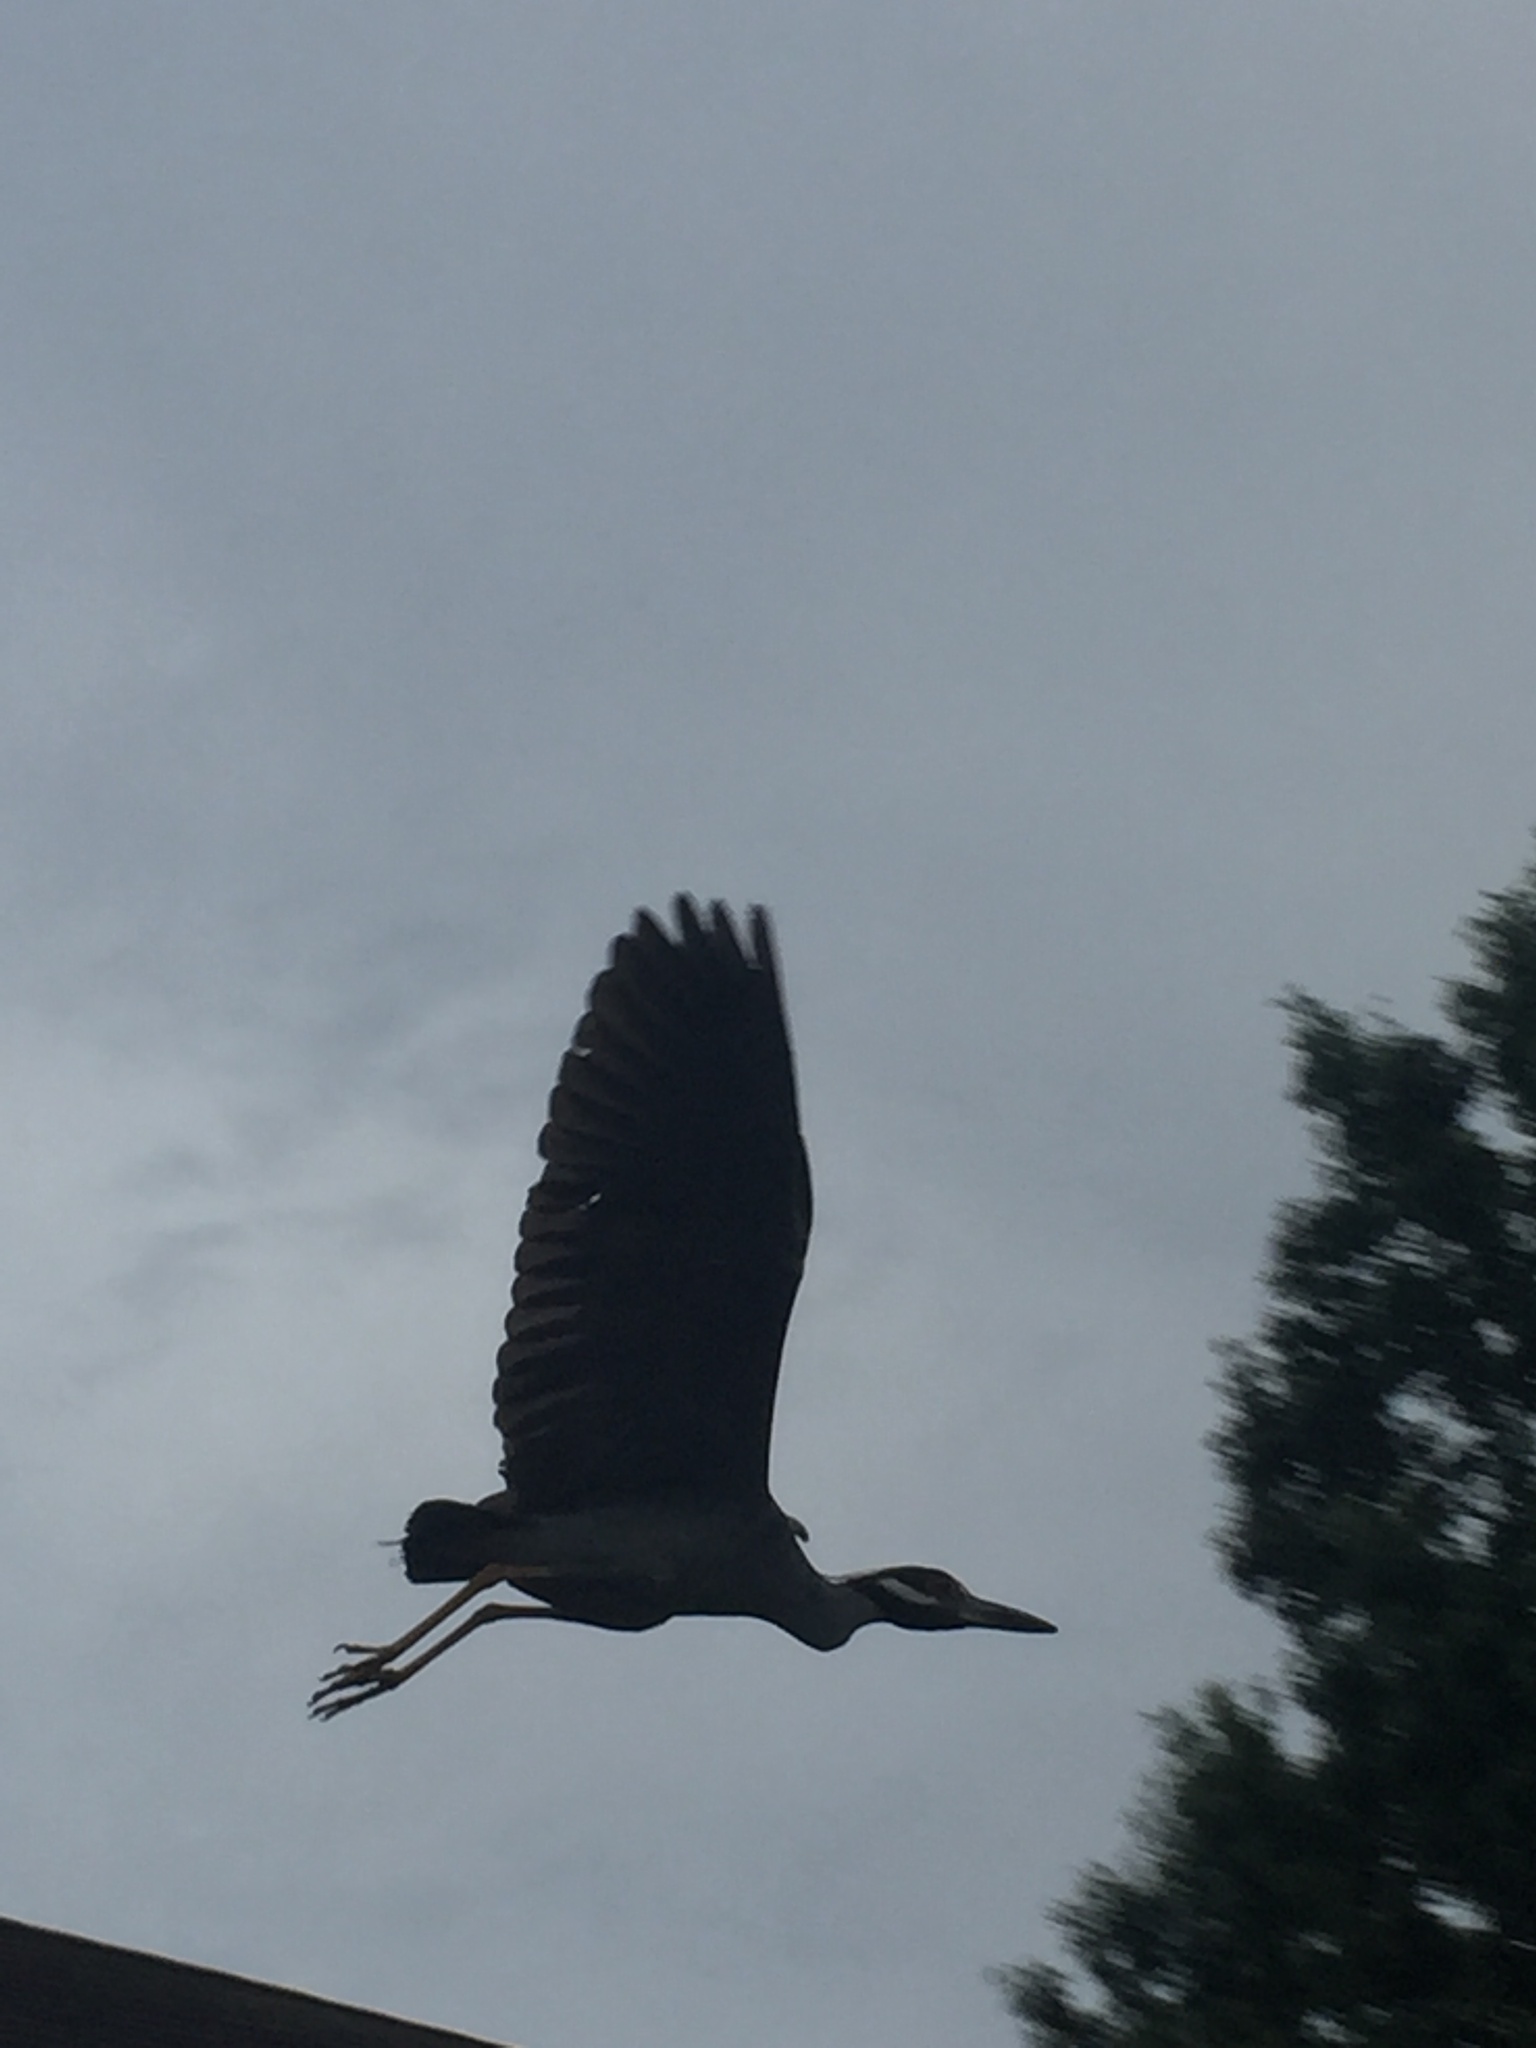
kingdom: Animalia
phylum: Chordata
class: Aves
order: Pelecaniformes
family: Ardeidae
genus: Nyctanassa
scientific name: Nyctanassa violacea
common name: Yellow-crowned night heron
